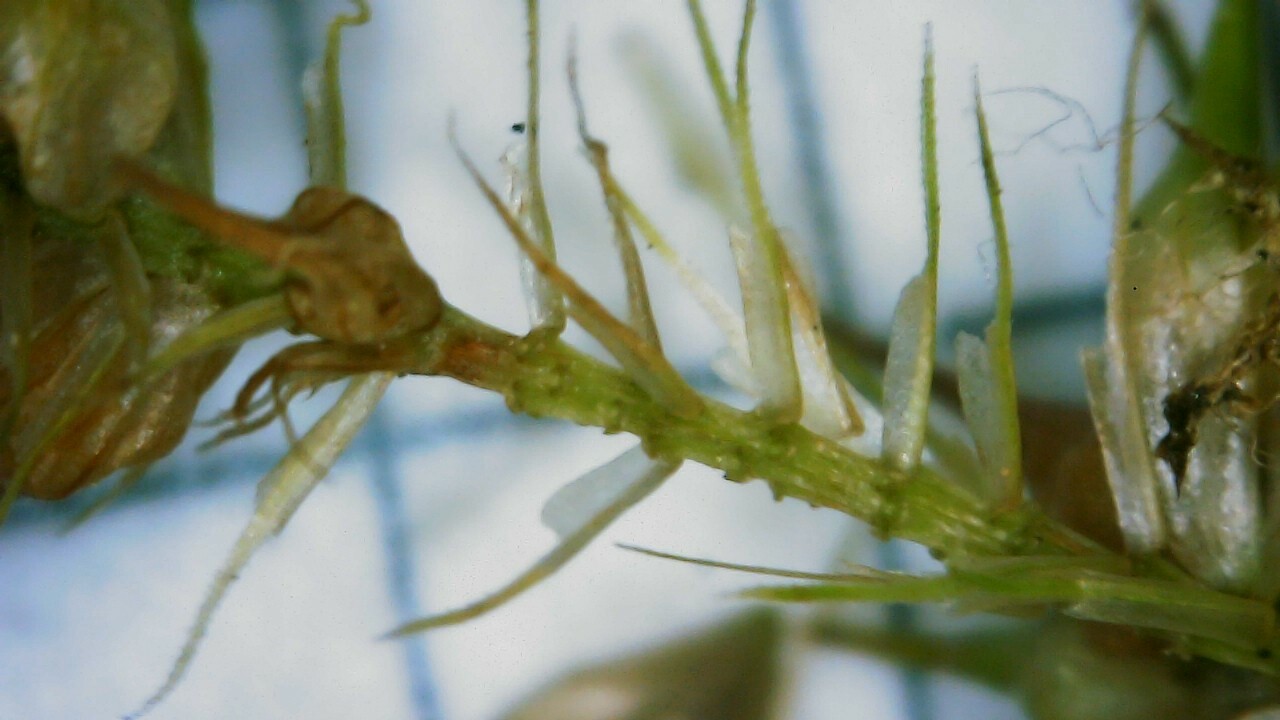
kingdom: Plantae
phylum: Tracheophyta
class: Liliopsida
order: Poales
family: Cyperaceae
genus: Carex
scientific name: Carex lurida
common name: Sallow sedge
